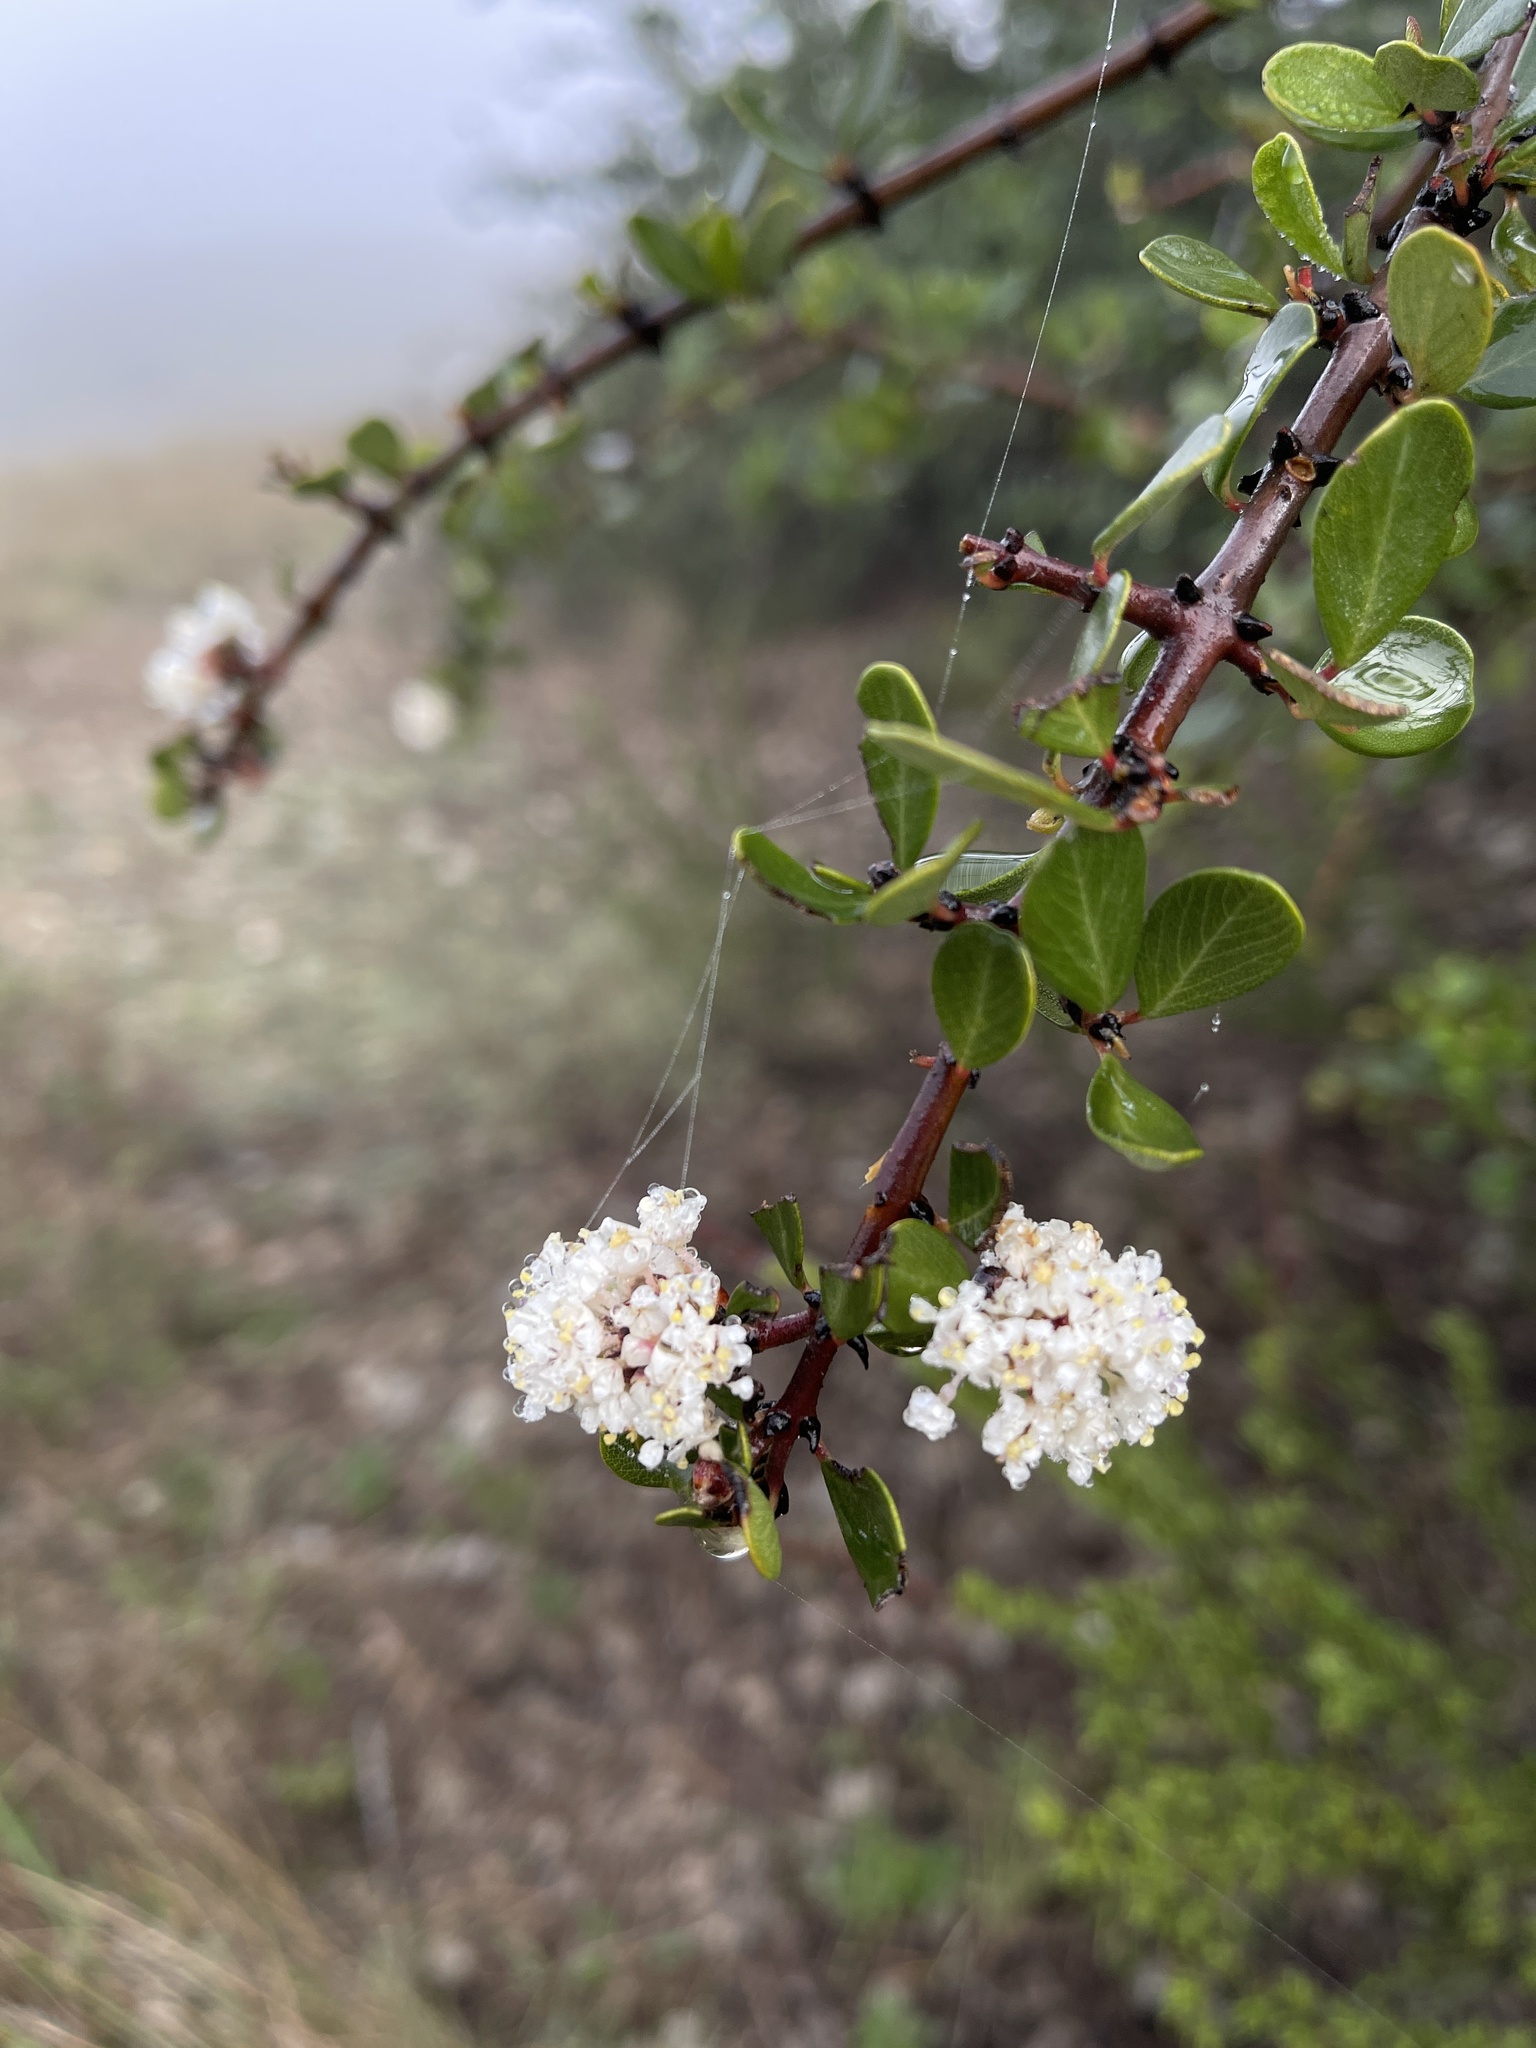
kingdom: Plantae
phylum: Tracheophyta
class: Magnoliopsida
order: Rosales
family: Rhamnaceae
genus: Ceanothus
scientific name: Ceanothus cuneatus
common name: Cuneate ceanothus
